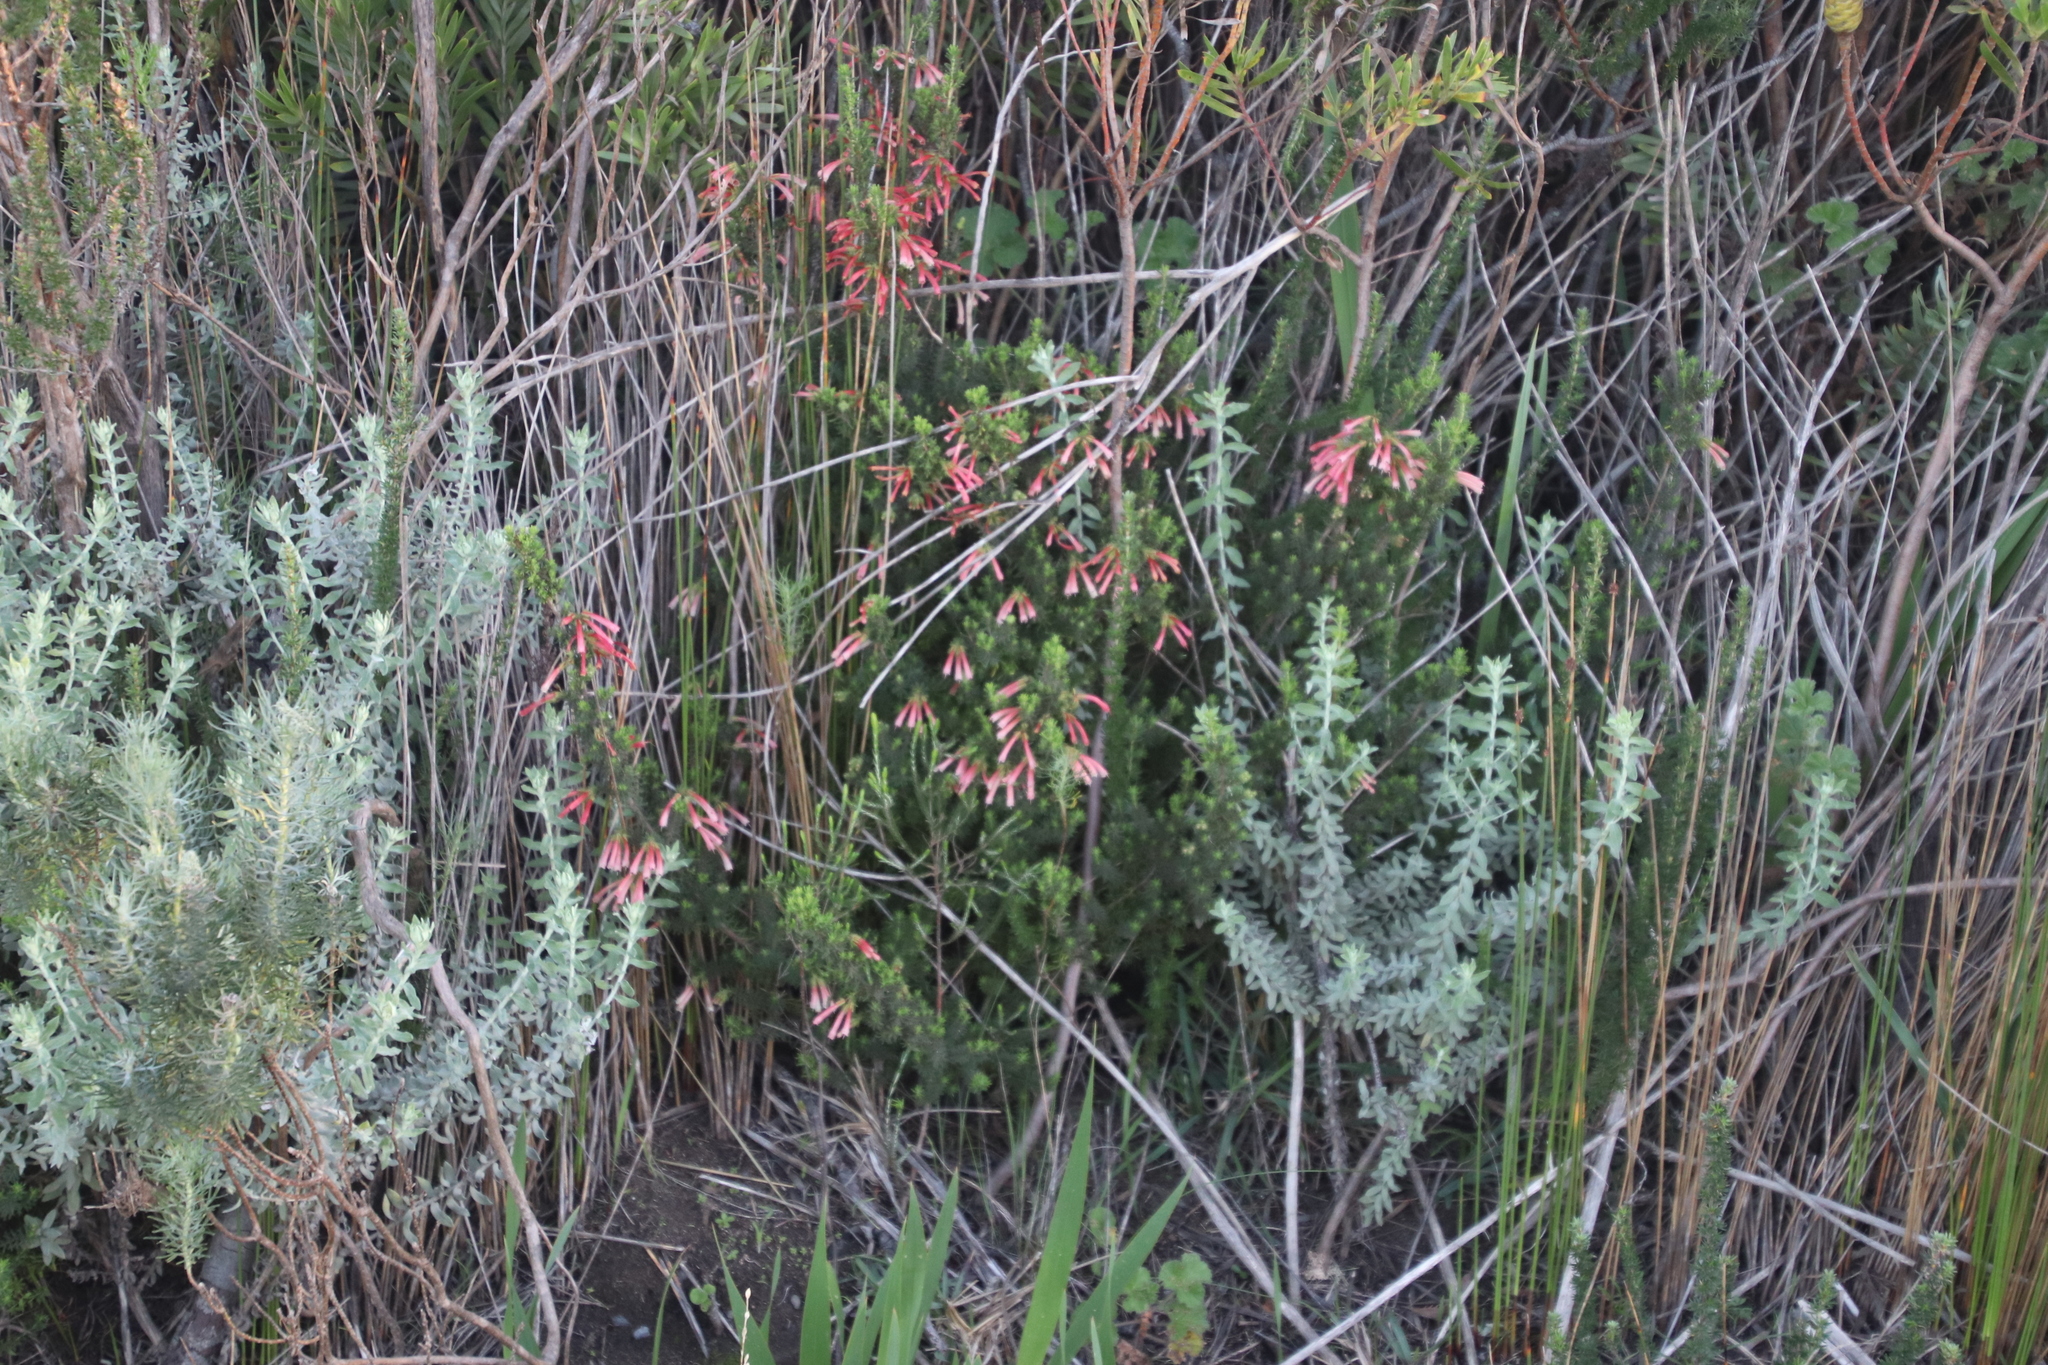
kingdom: Plantae
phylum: Tracheophyta
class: Magnoliopsida
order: Ericales
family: Ericaceae
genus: Erica
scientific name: Erica glandulosa
